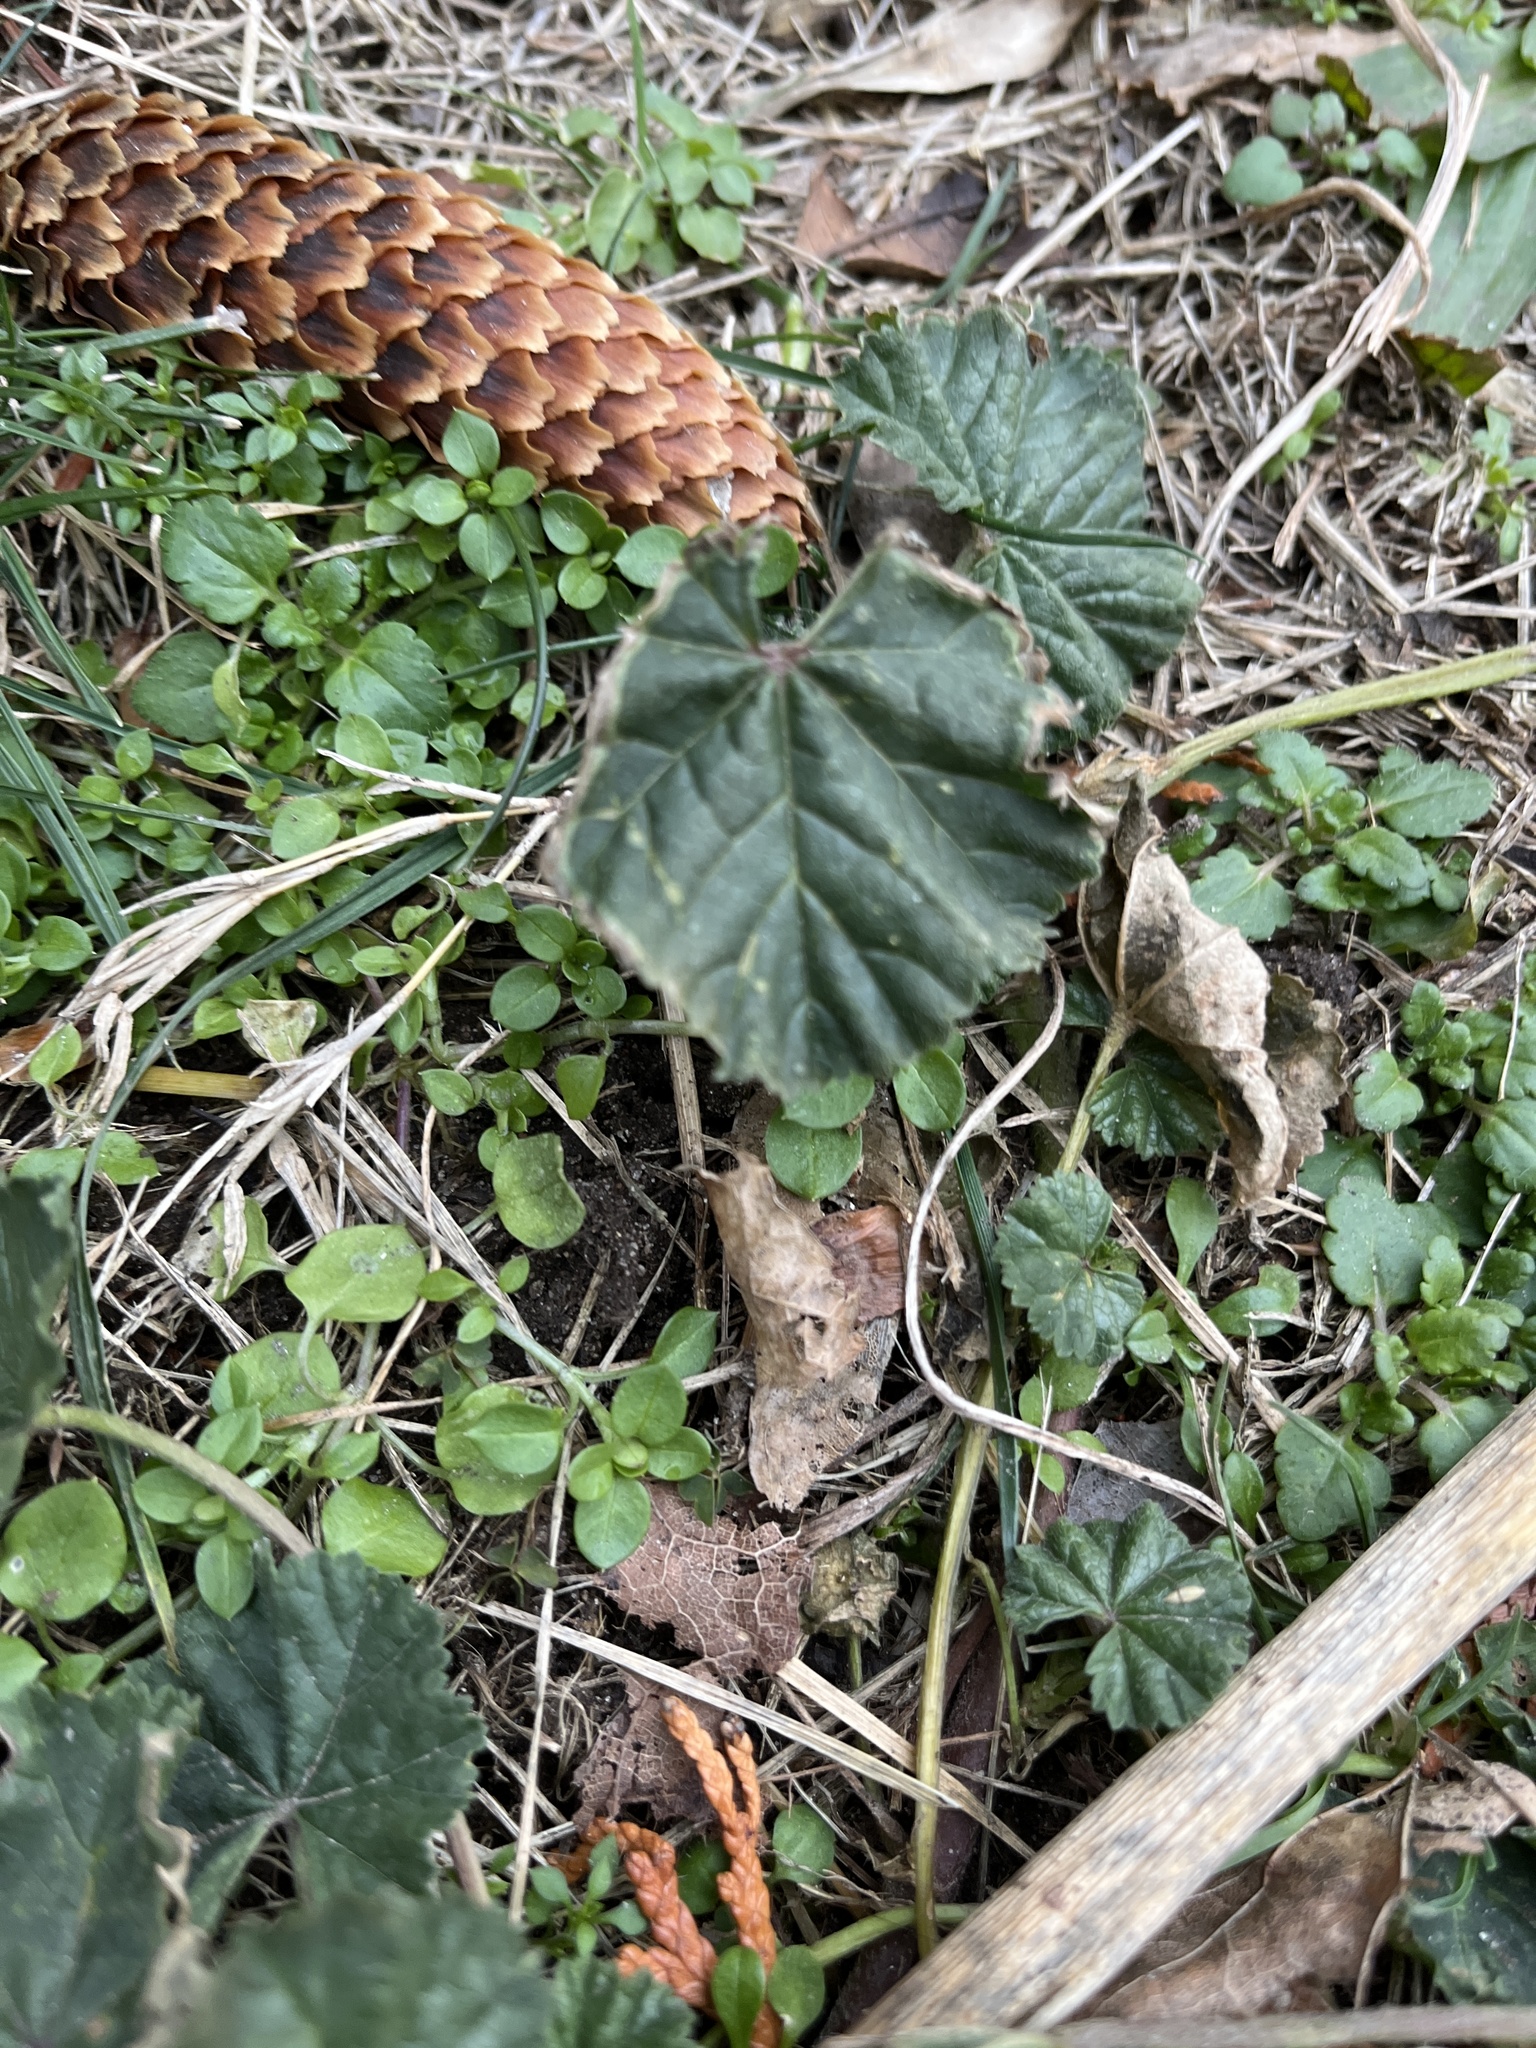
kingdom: Plantae
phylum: Tracheophyta
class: Magnoliopsida
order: Malvales
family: Malvaceae
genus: Malva
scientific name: Malva
